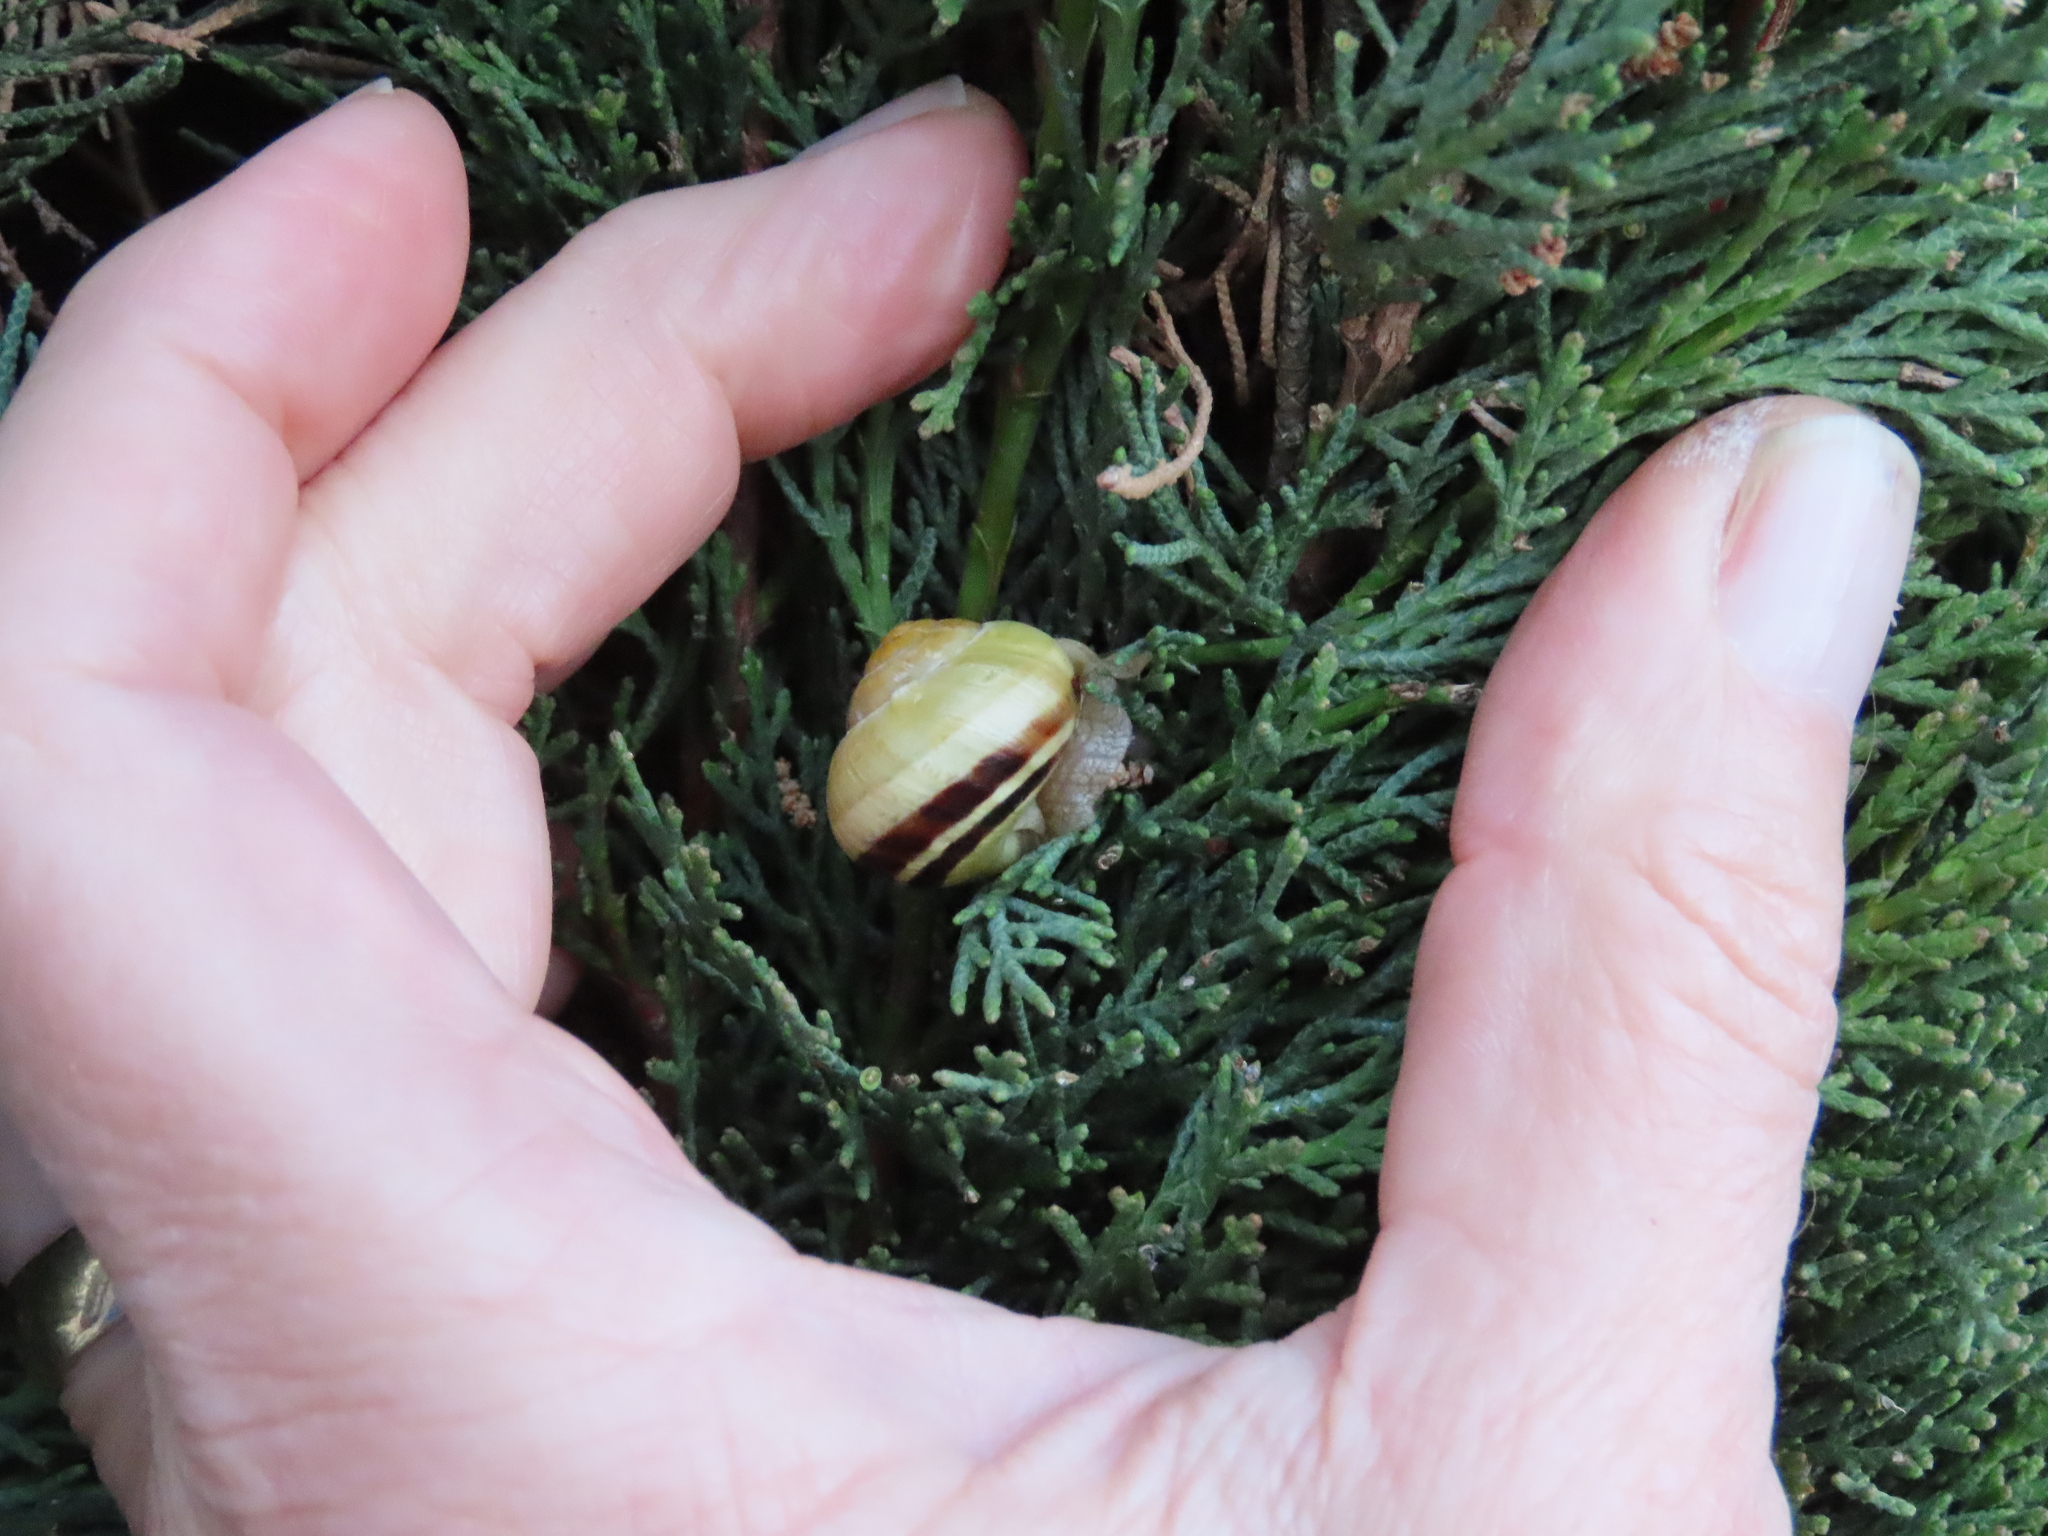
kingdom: Animalia
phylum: Mollusca
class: Gastropoda
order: Stylommatophora
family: Helicidae
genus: Cepaea
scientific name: Cepaea nemoralis
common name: Grovesnail
